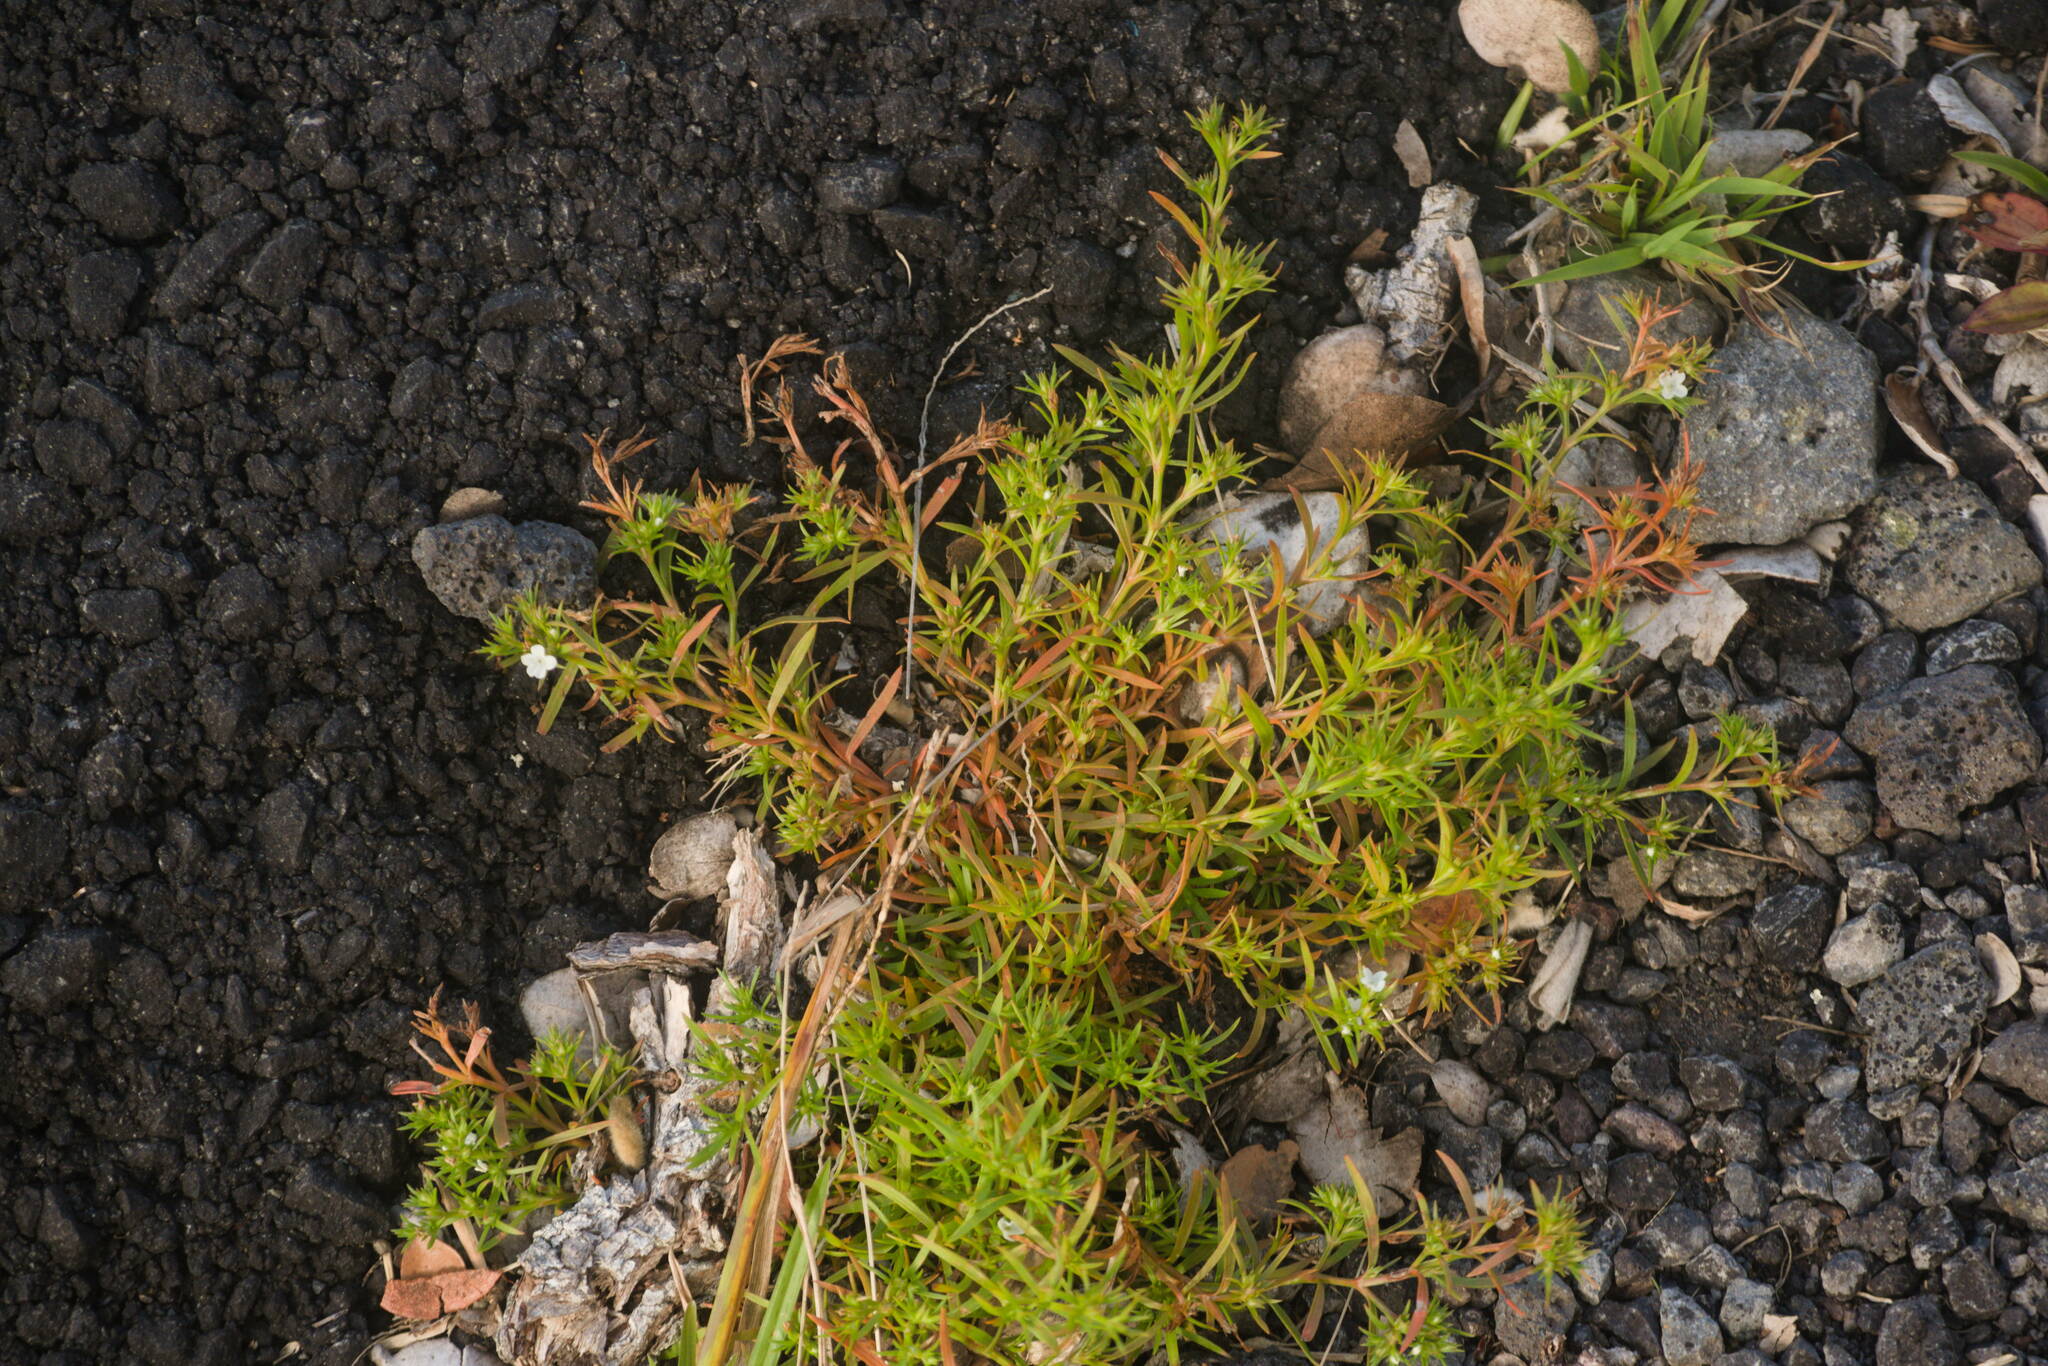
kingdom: Plantae
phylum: Tracheophyta
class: Magnoliopsida
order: Lamiales
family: Tetrachondraceae
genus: Polypremum
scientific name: Polypremum procumbens
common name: Juniper-leaf
